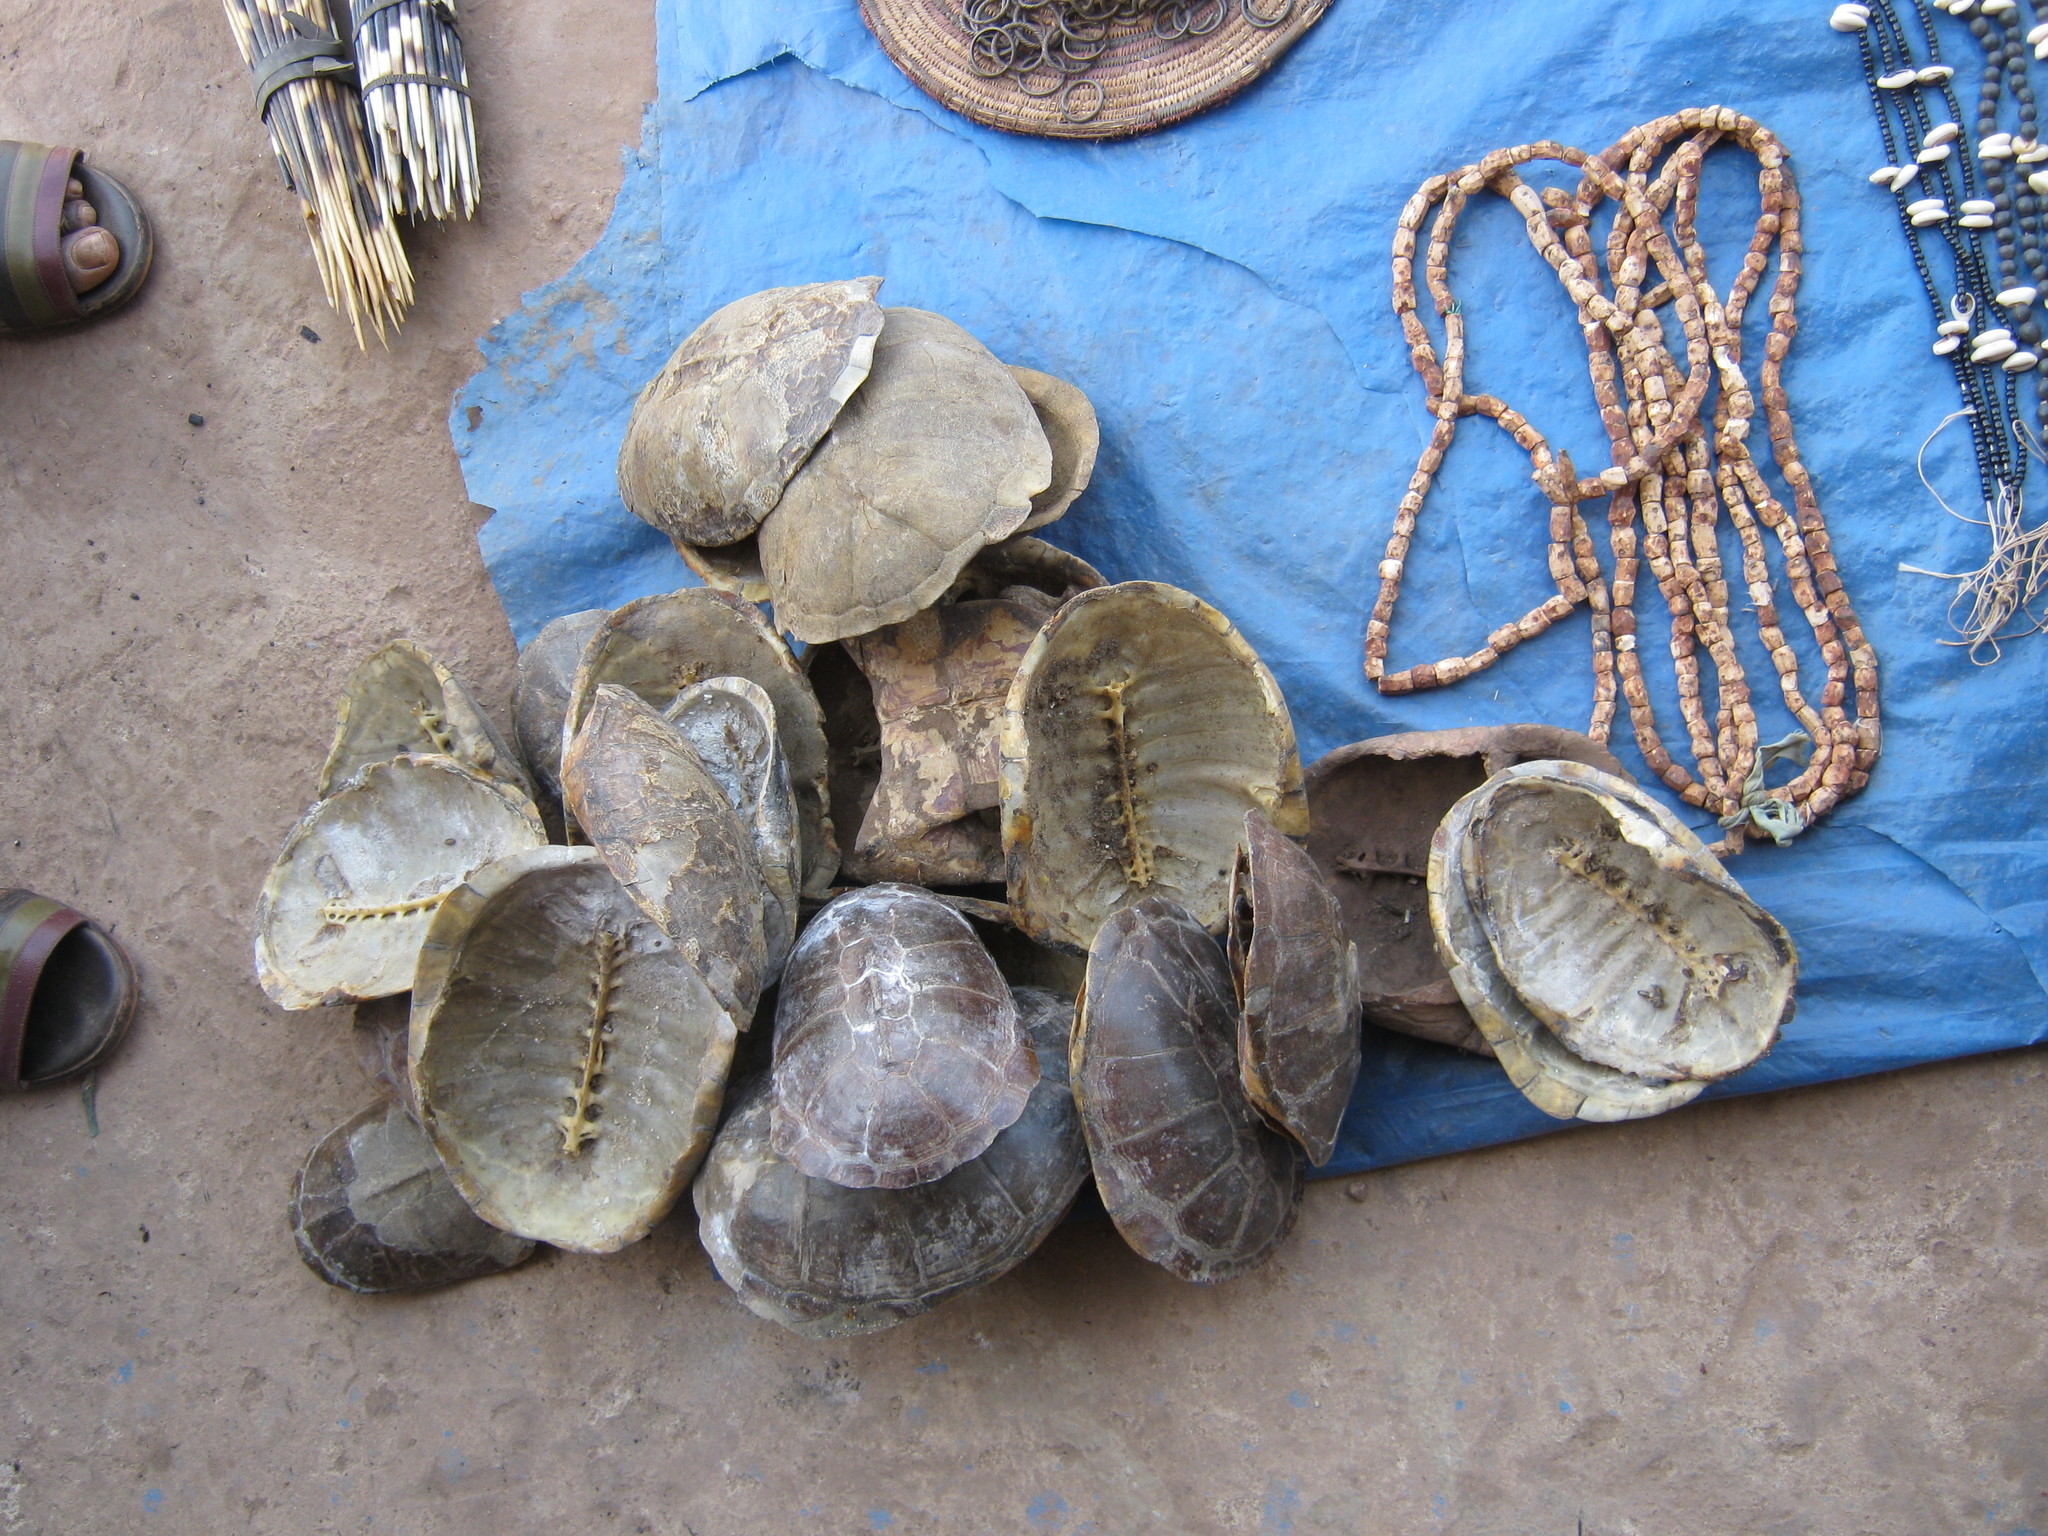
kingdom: Animalia
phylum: Chordata
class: Testudines
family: Pelomedusidae
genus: Pelusios
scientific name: Pelusios adansonii
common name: Adansons mud turtle
